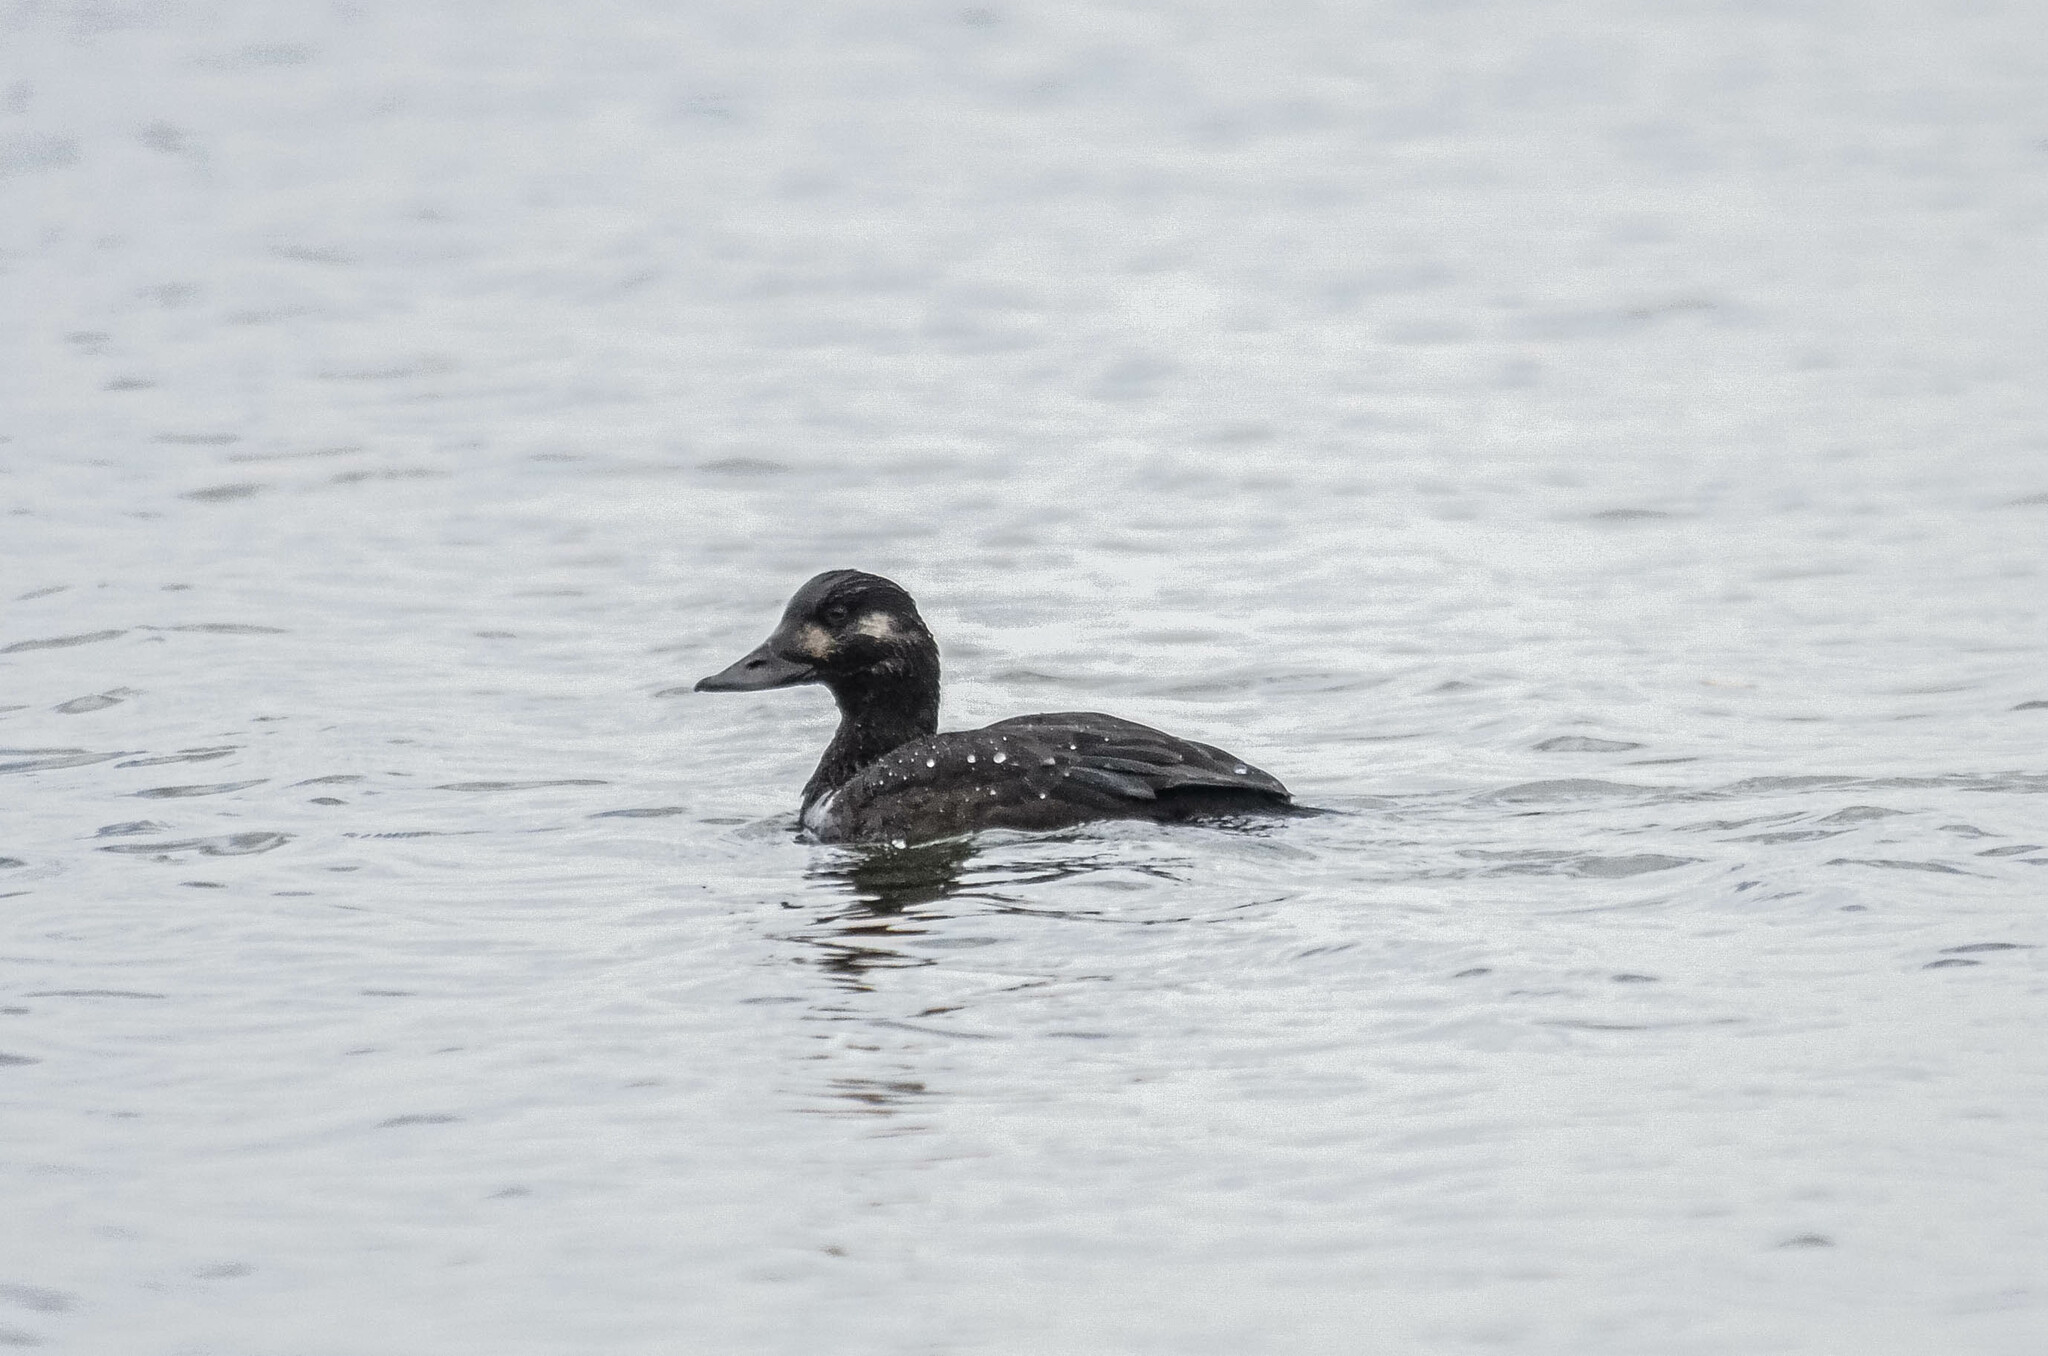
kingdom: Animalia
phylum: Chordata
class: Aves
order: Anseriformes
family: Anatidae
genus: Melanitta
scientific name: Melanitta fusca
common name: Velvet scoter
